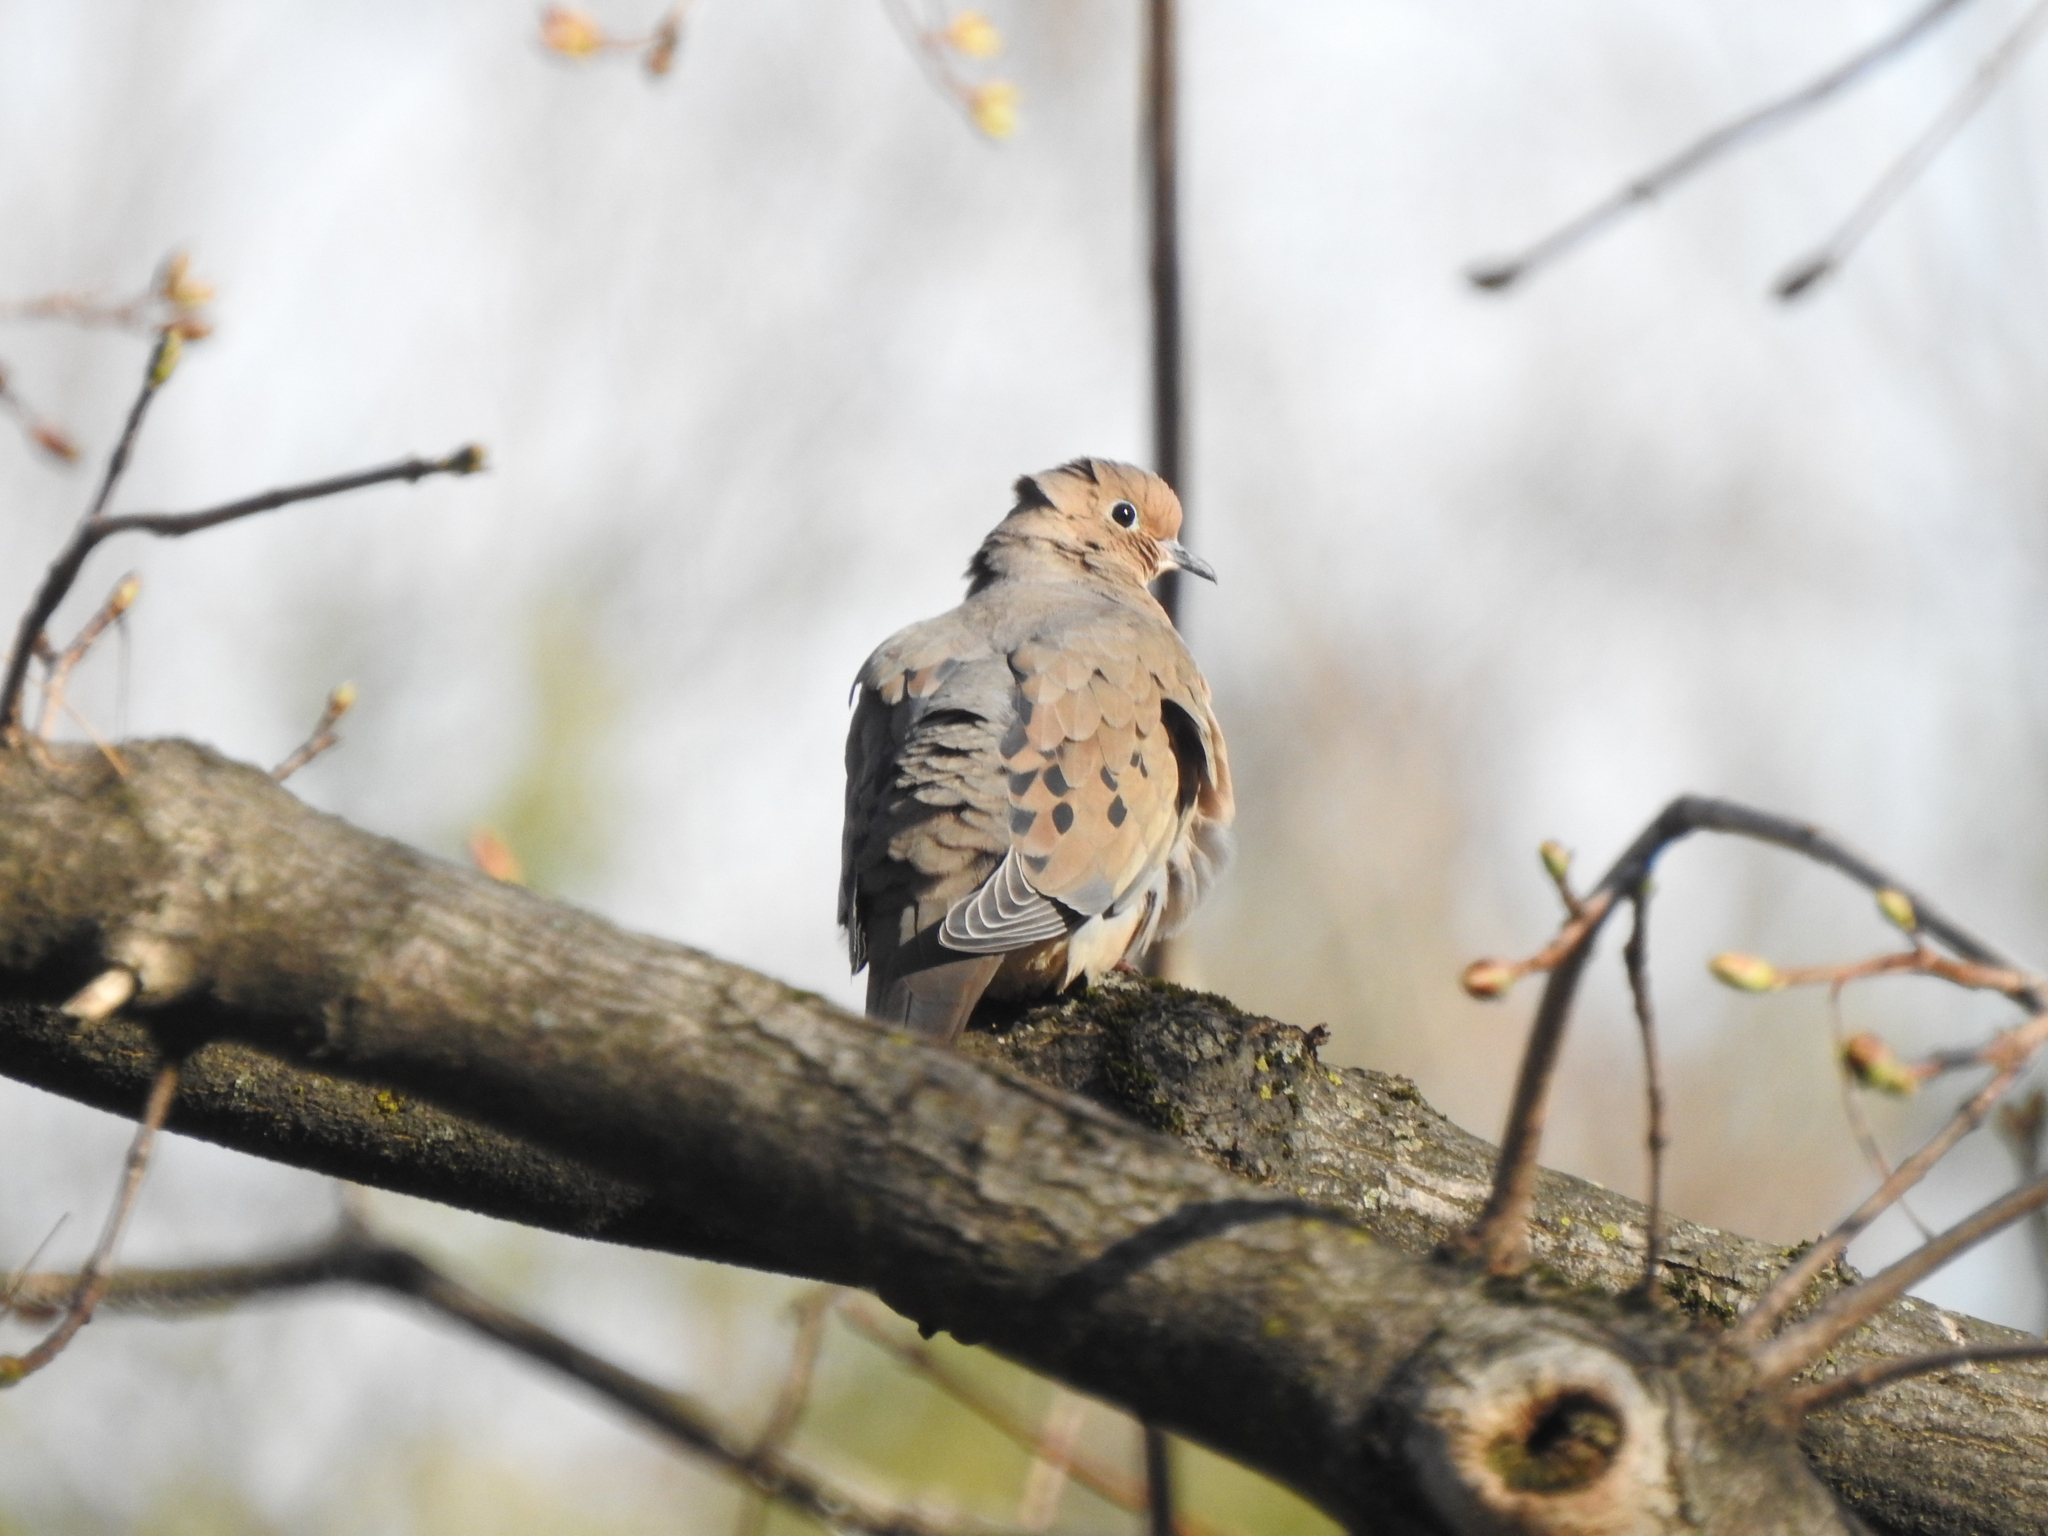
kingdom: Animalia
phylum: Chordata
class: Aves
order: Columbiformes
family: Columbidae
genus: Zenaida
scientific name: Zenaida macroura
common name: Mourning dove
